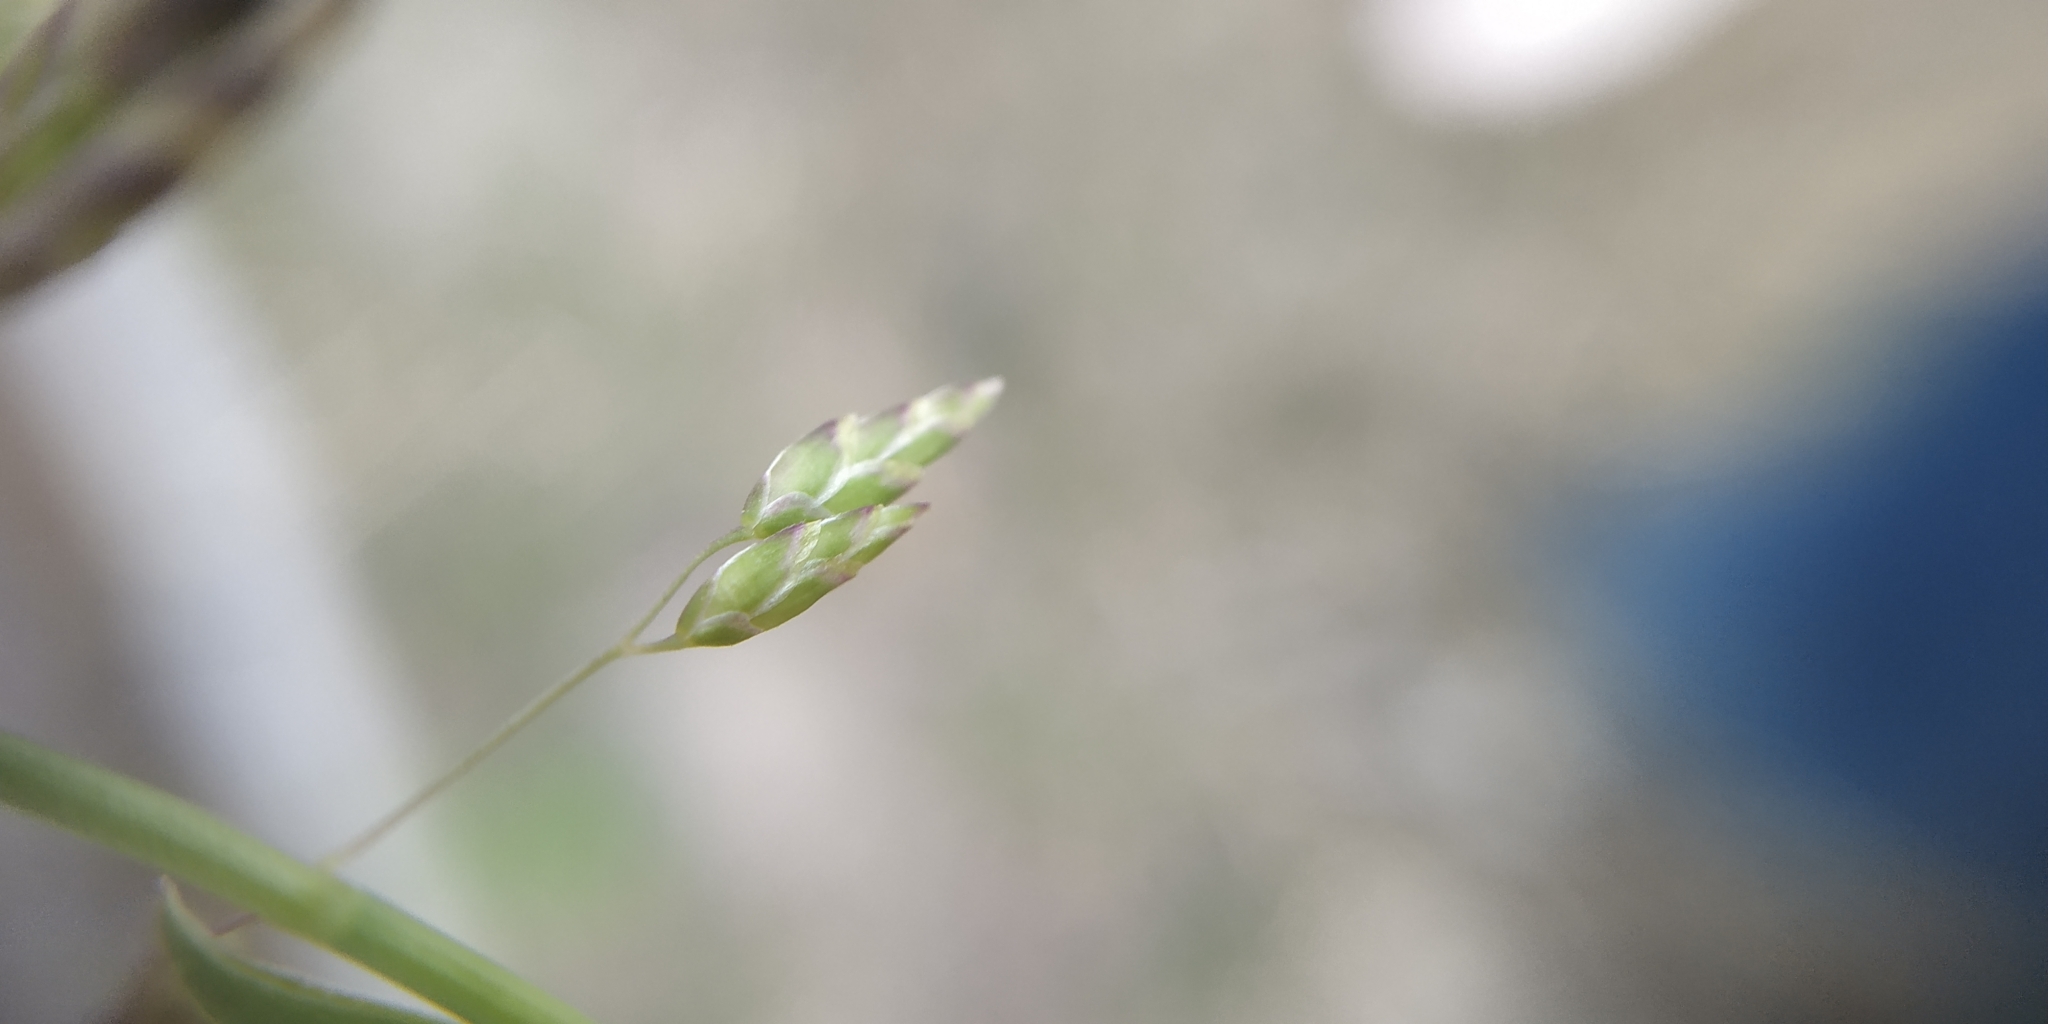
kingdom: Plantae
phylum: Tracheophyta
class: Liliopsida
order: Poales
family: Poaceae
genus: Poa
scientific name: Poa annua
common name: Annual bluegrass
